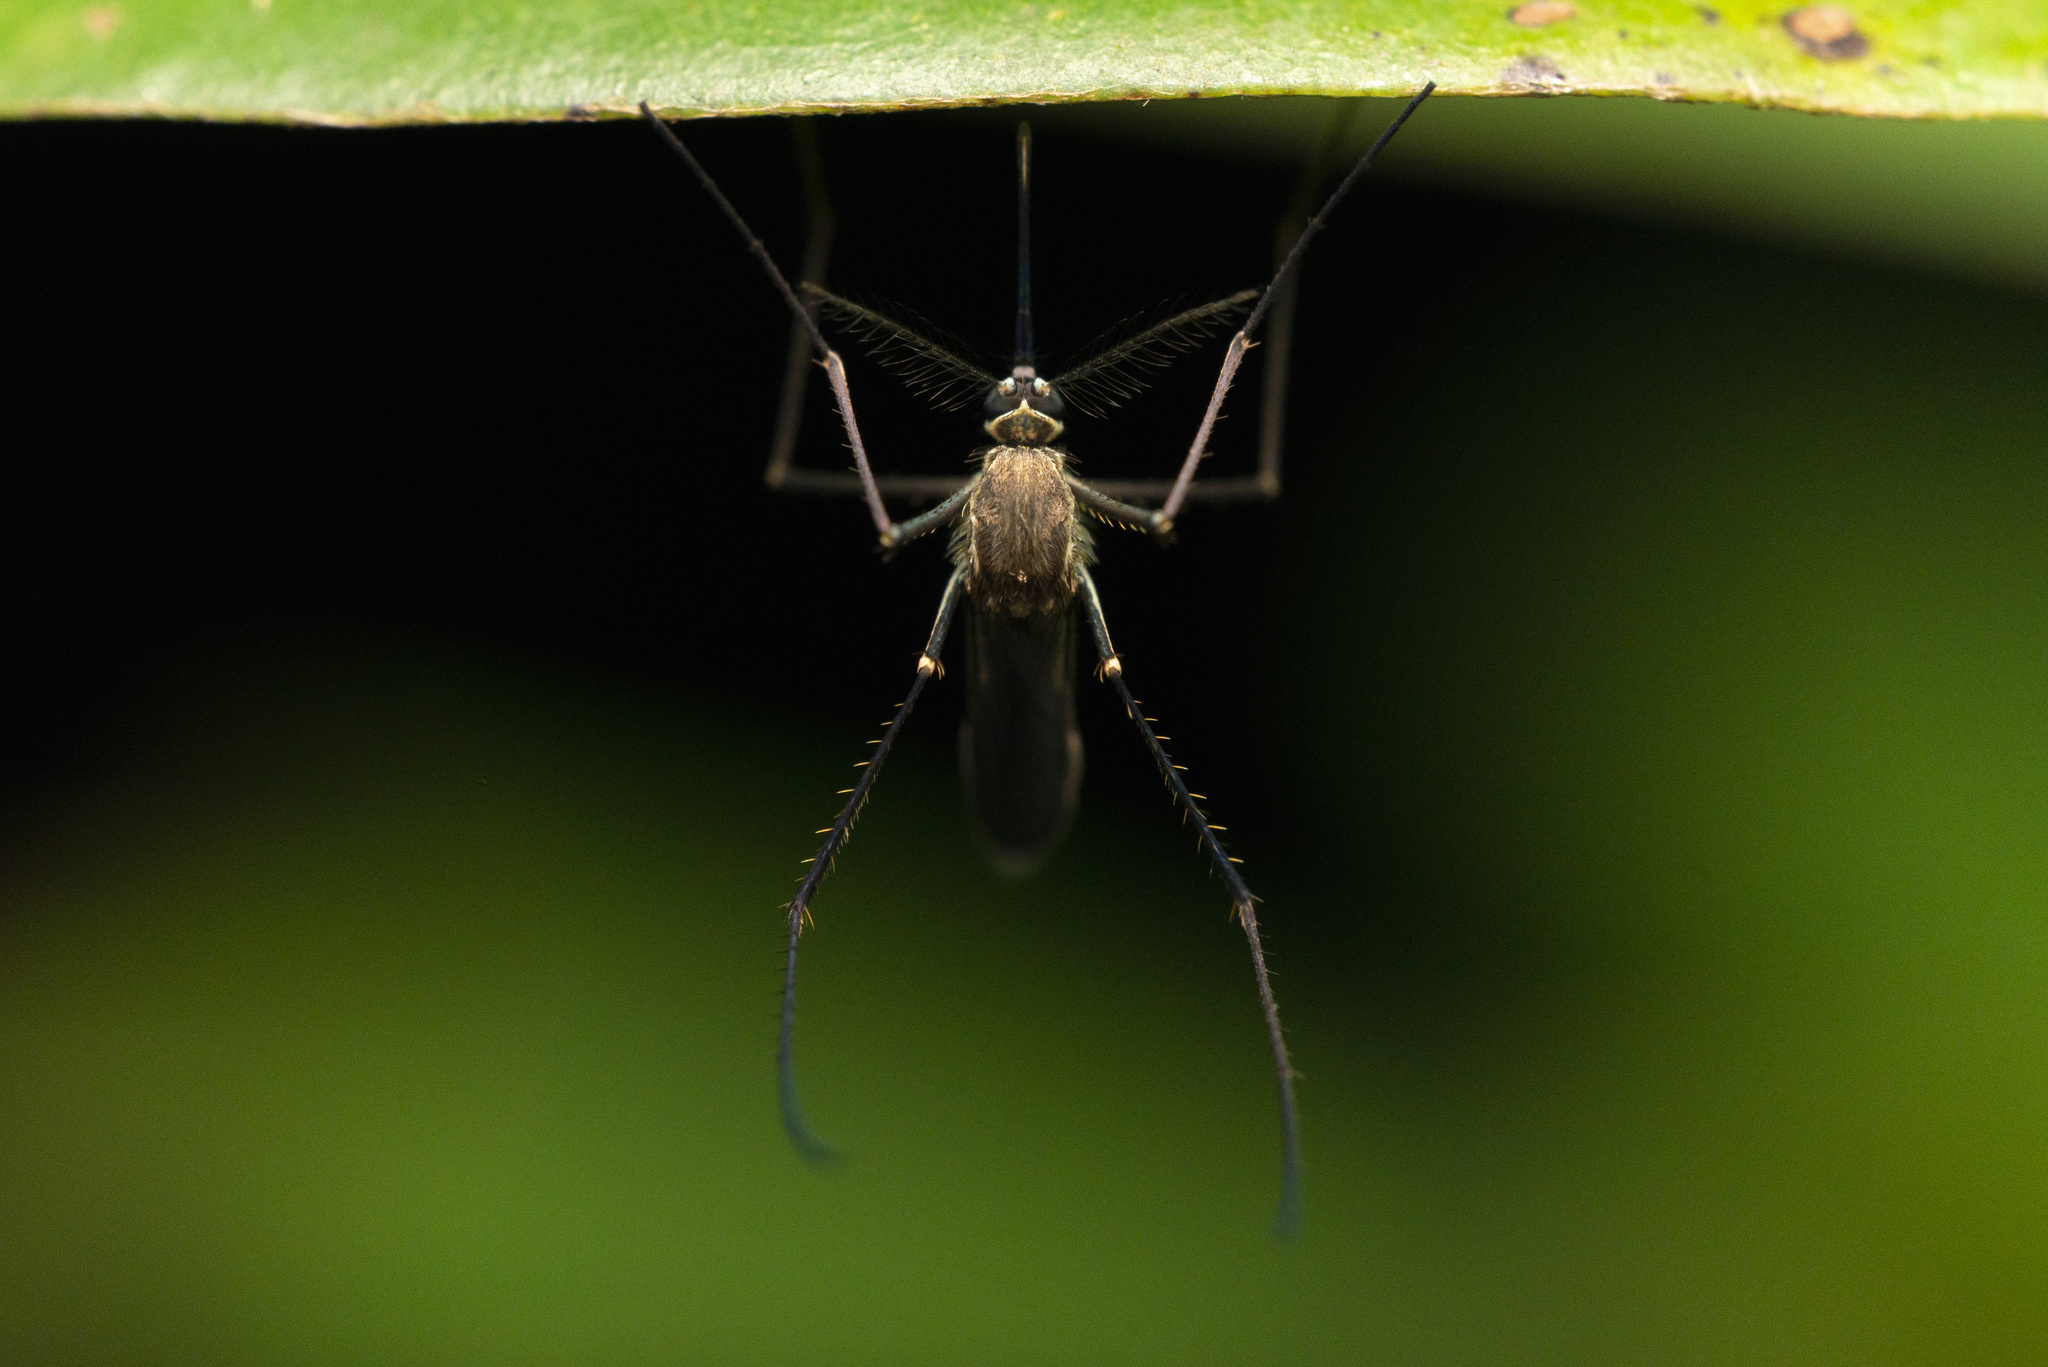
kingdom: Animalia
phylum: Arthropoda
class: Insecta
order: Diptera
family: Culicidae
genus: Armigeres
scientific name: Armigeres subalbatus
